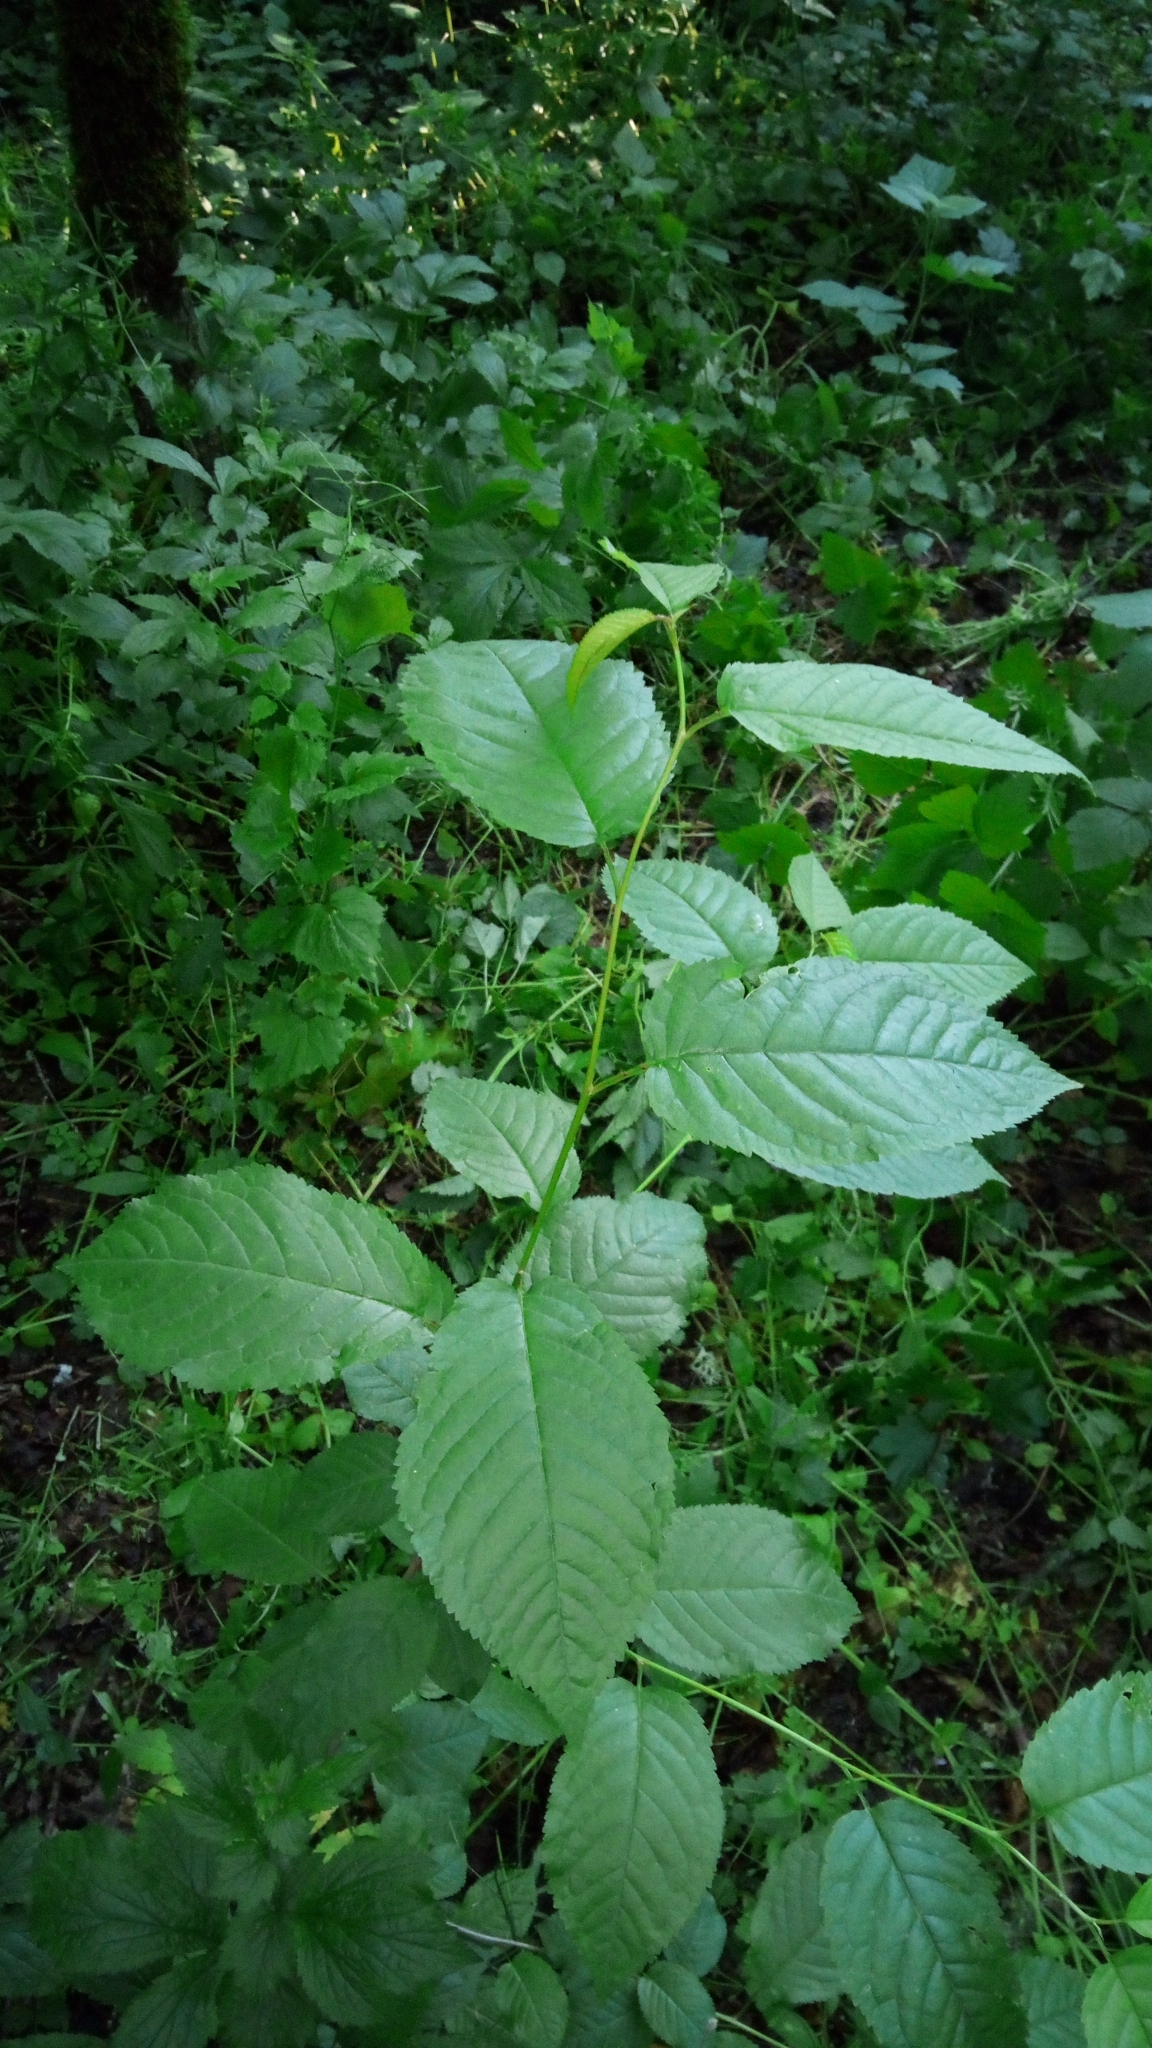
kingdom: Plantae
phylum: Tracheophyta
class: Magnoliopsida
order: Rosales
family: Rosaceae
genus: Prunus
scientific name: Prunus avium
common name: Sweet cherry
